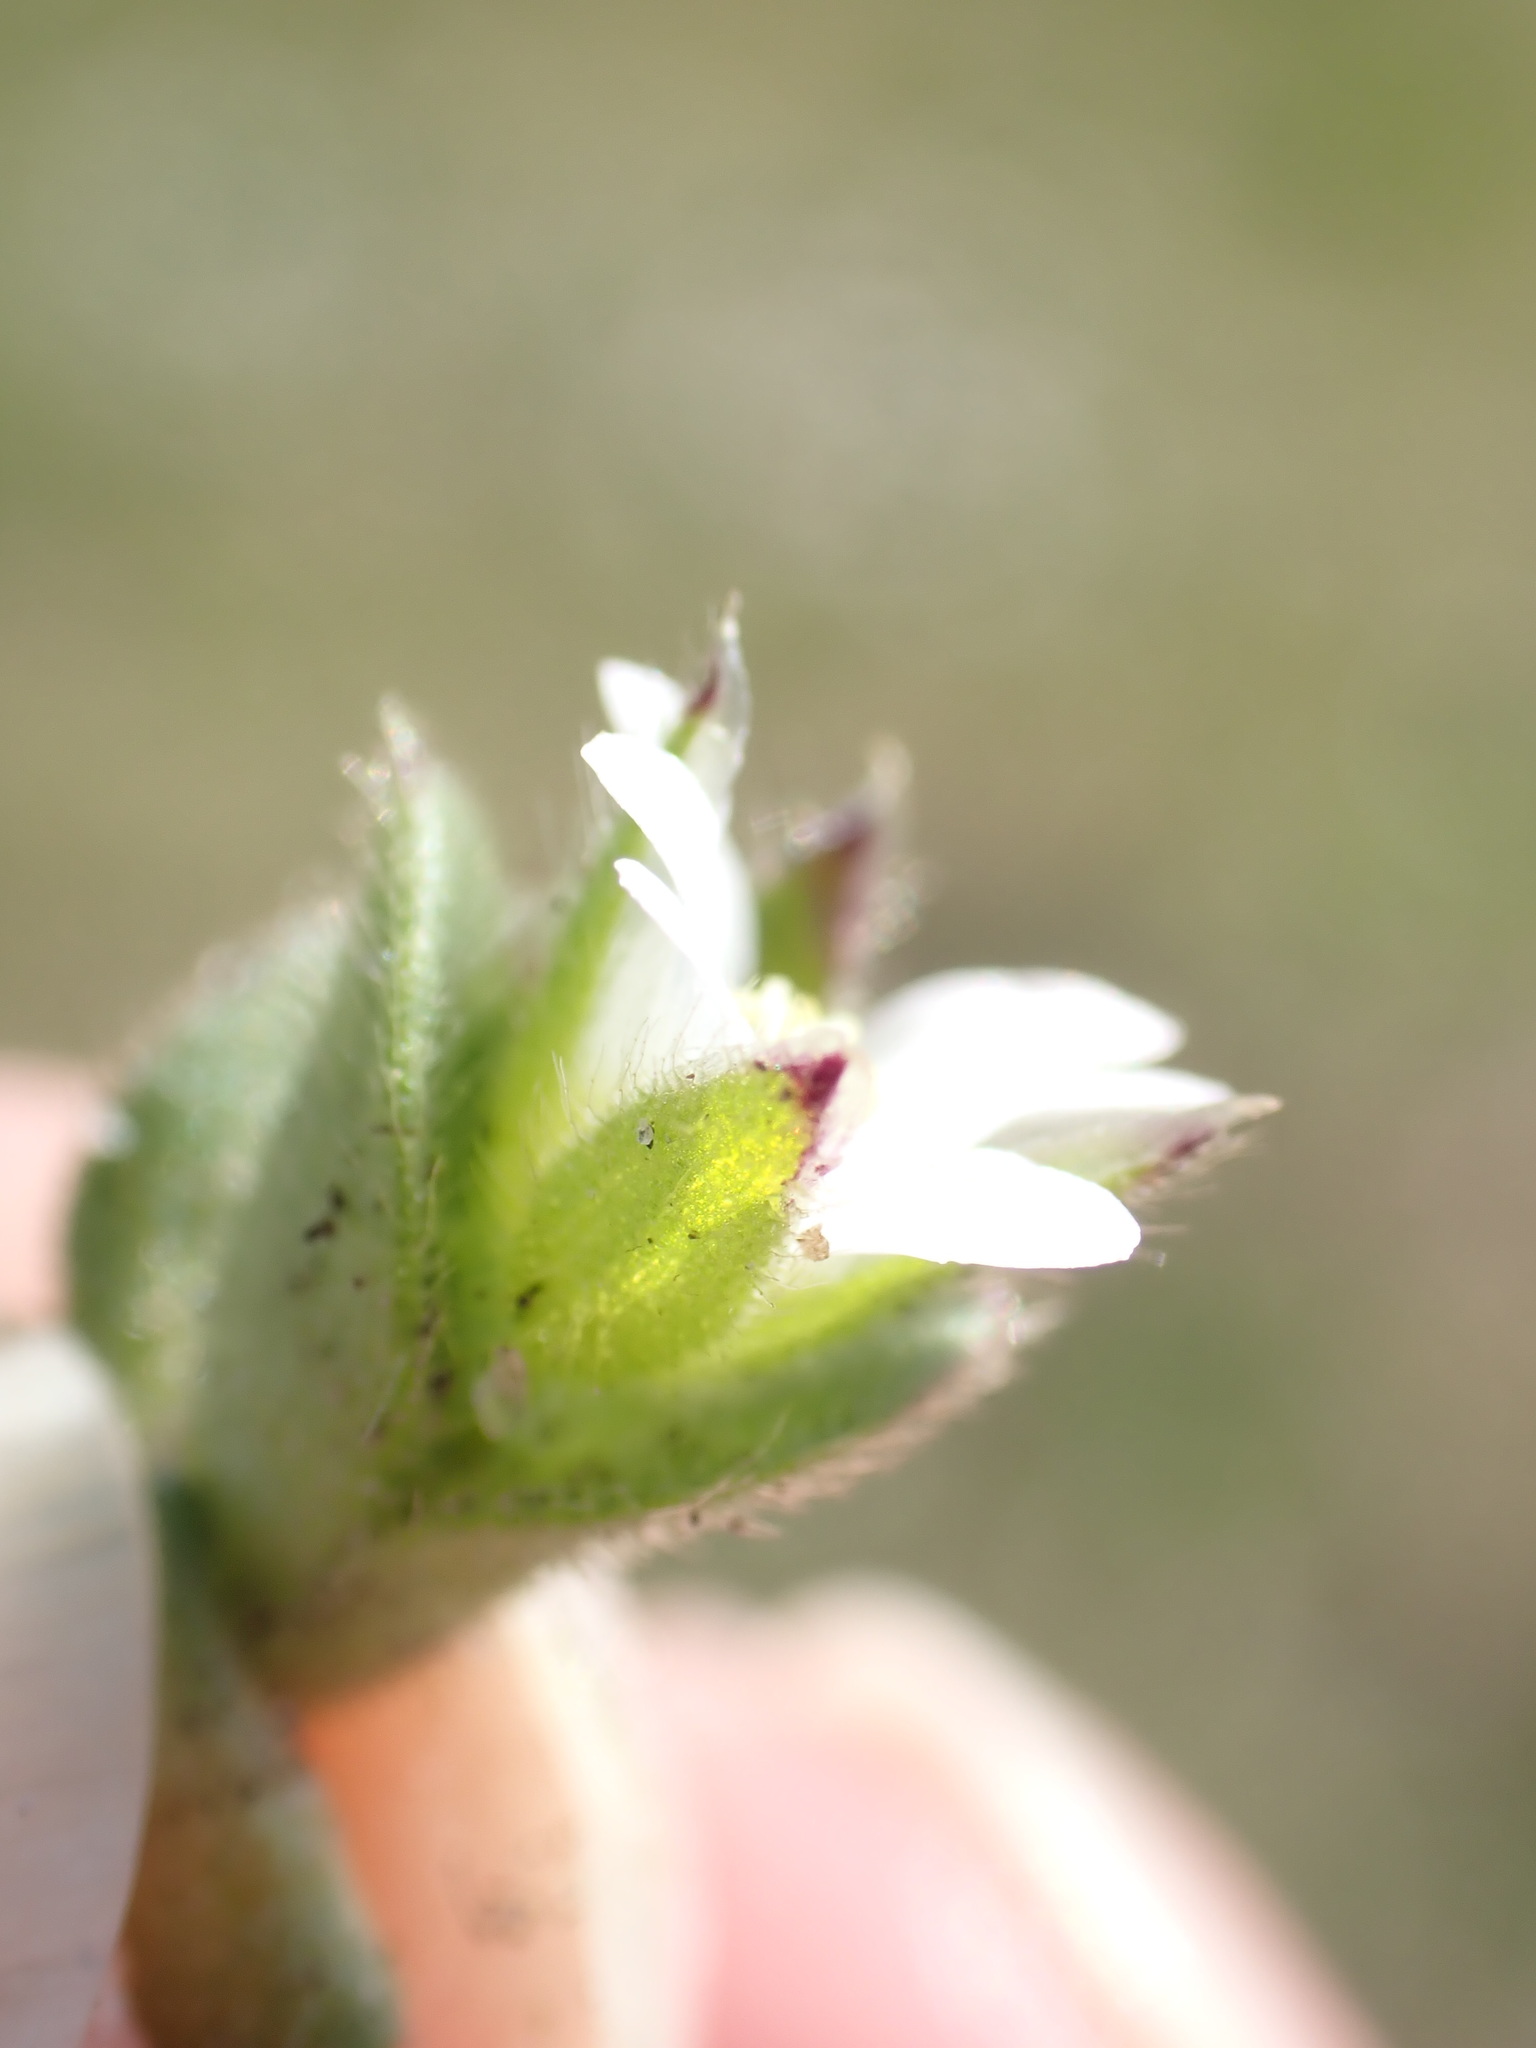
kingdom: Plantae
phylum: Tracheophyta
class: Magnoliopsida
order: Caryophyllales
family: Caryophyllaceae
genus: Cerastium
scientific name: Cerastium diffusum
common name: Fourstamen chickweed
